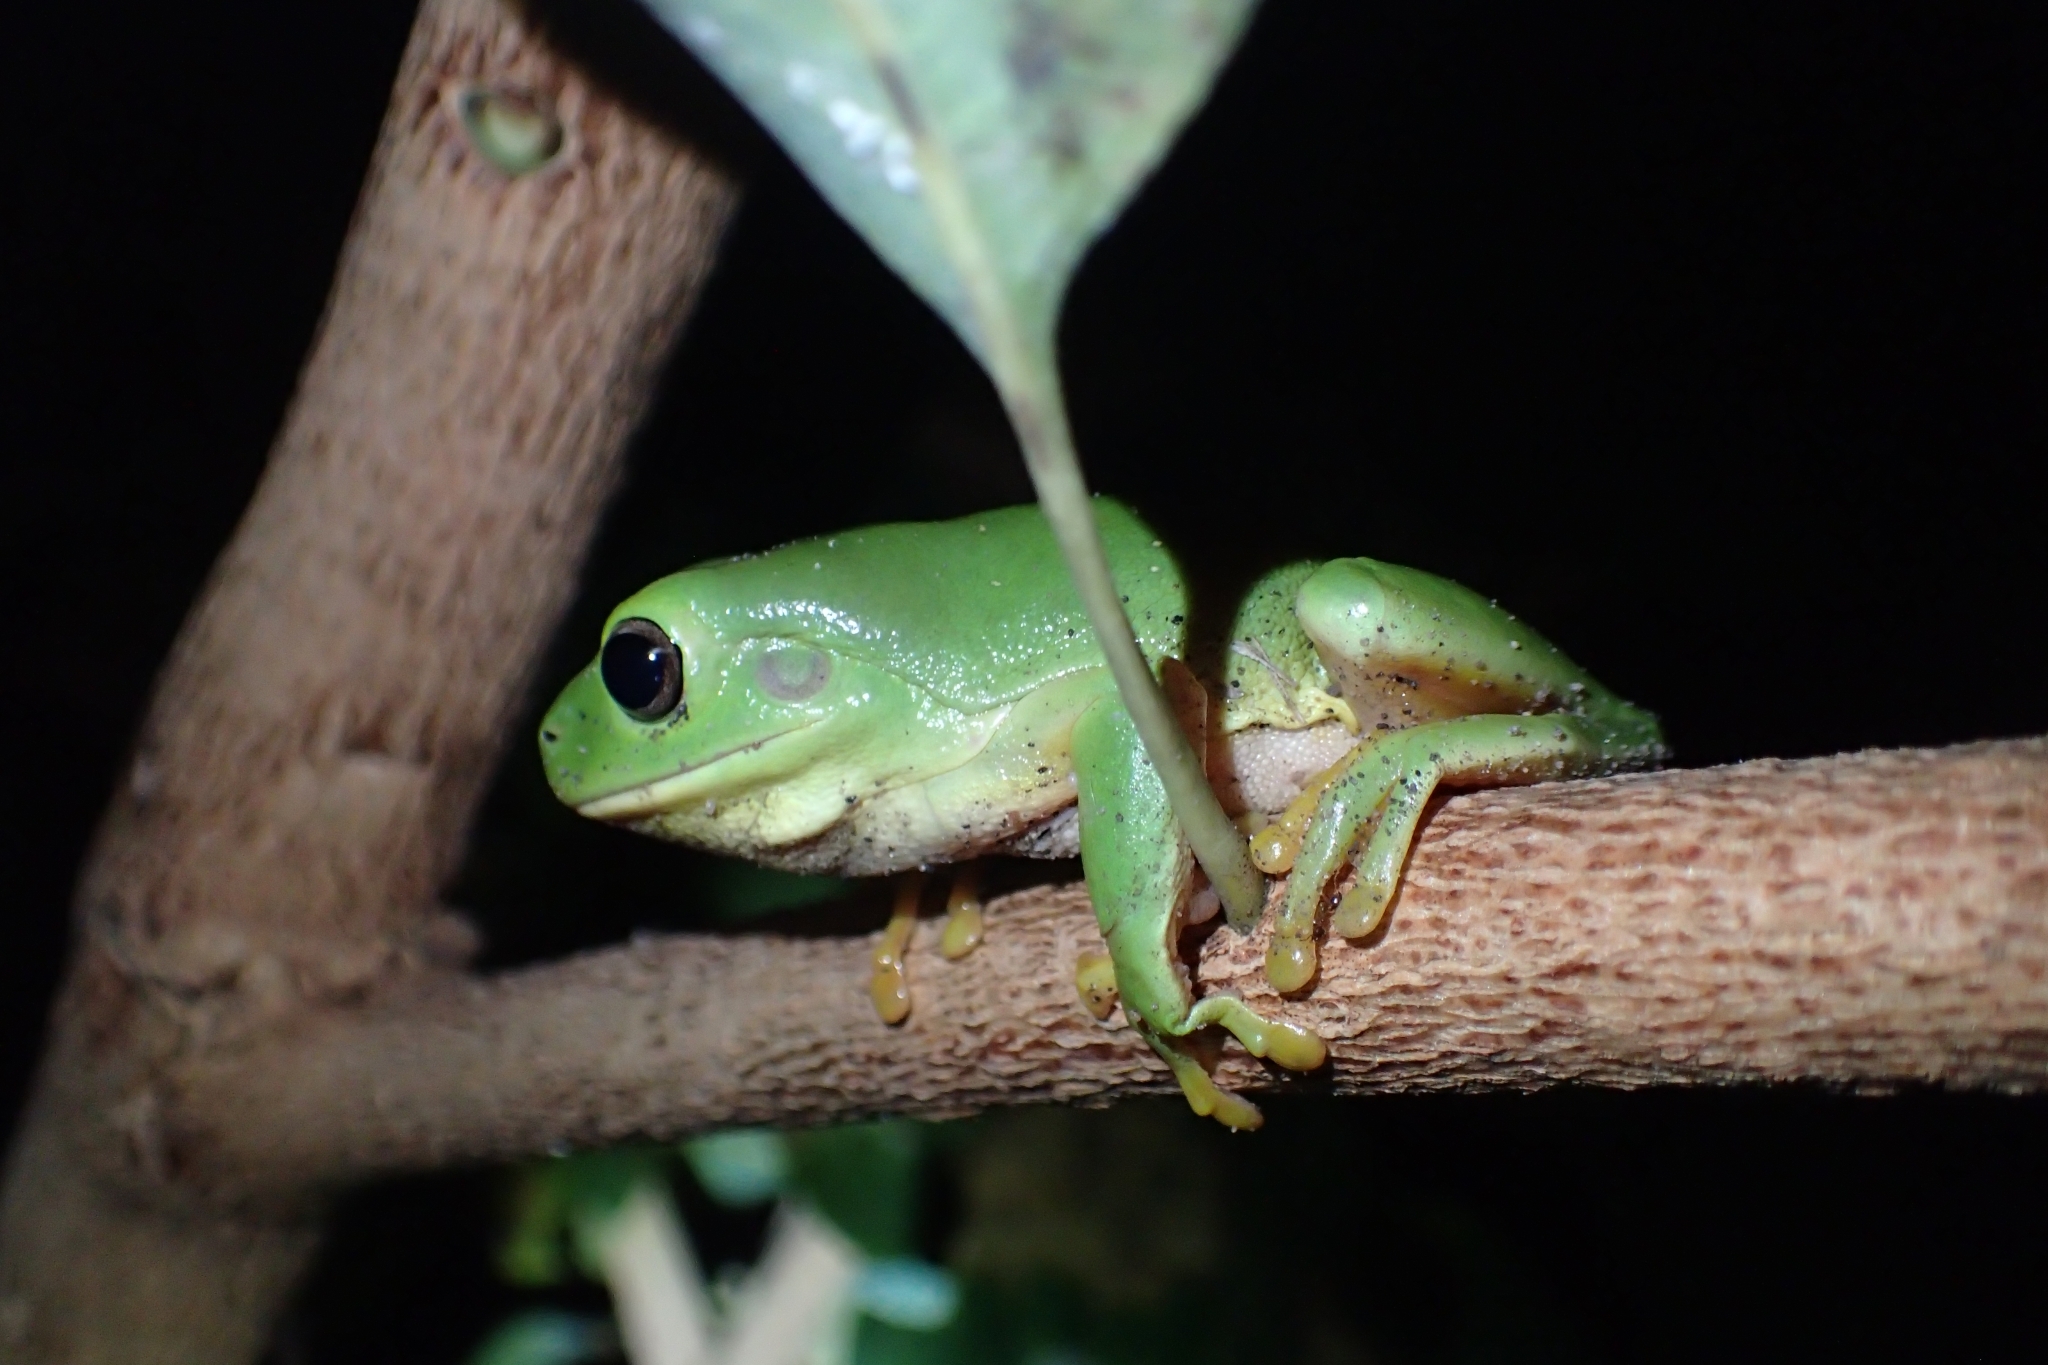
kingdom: Animalia
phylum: Chordata
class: Amphibia
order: Anura
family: Pelodryadidae
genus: Ranoidea
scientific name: Ranoidea caerulea
